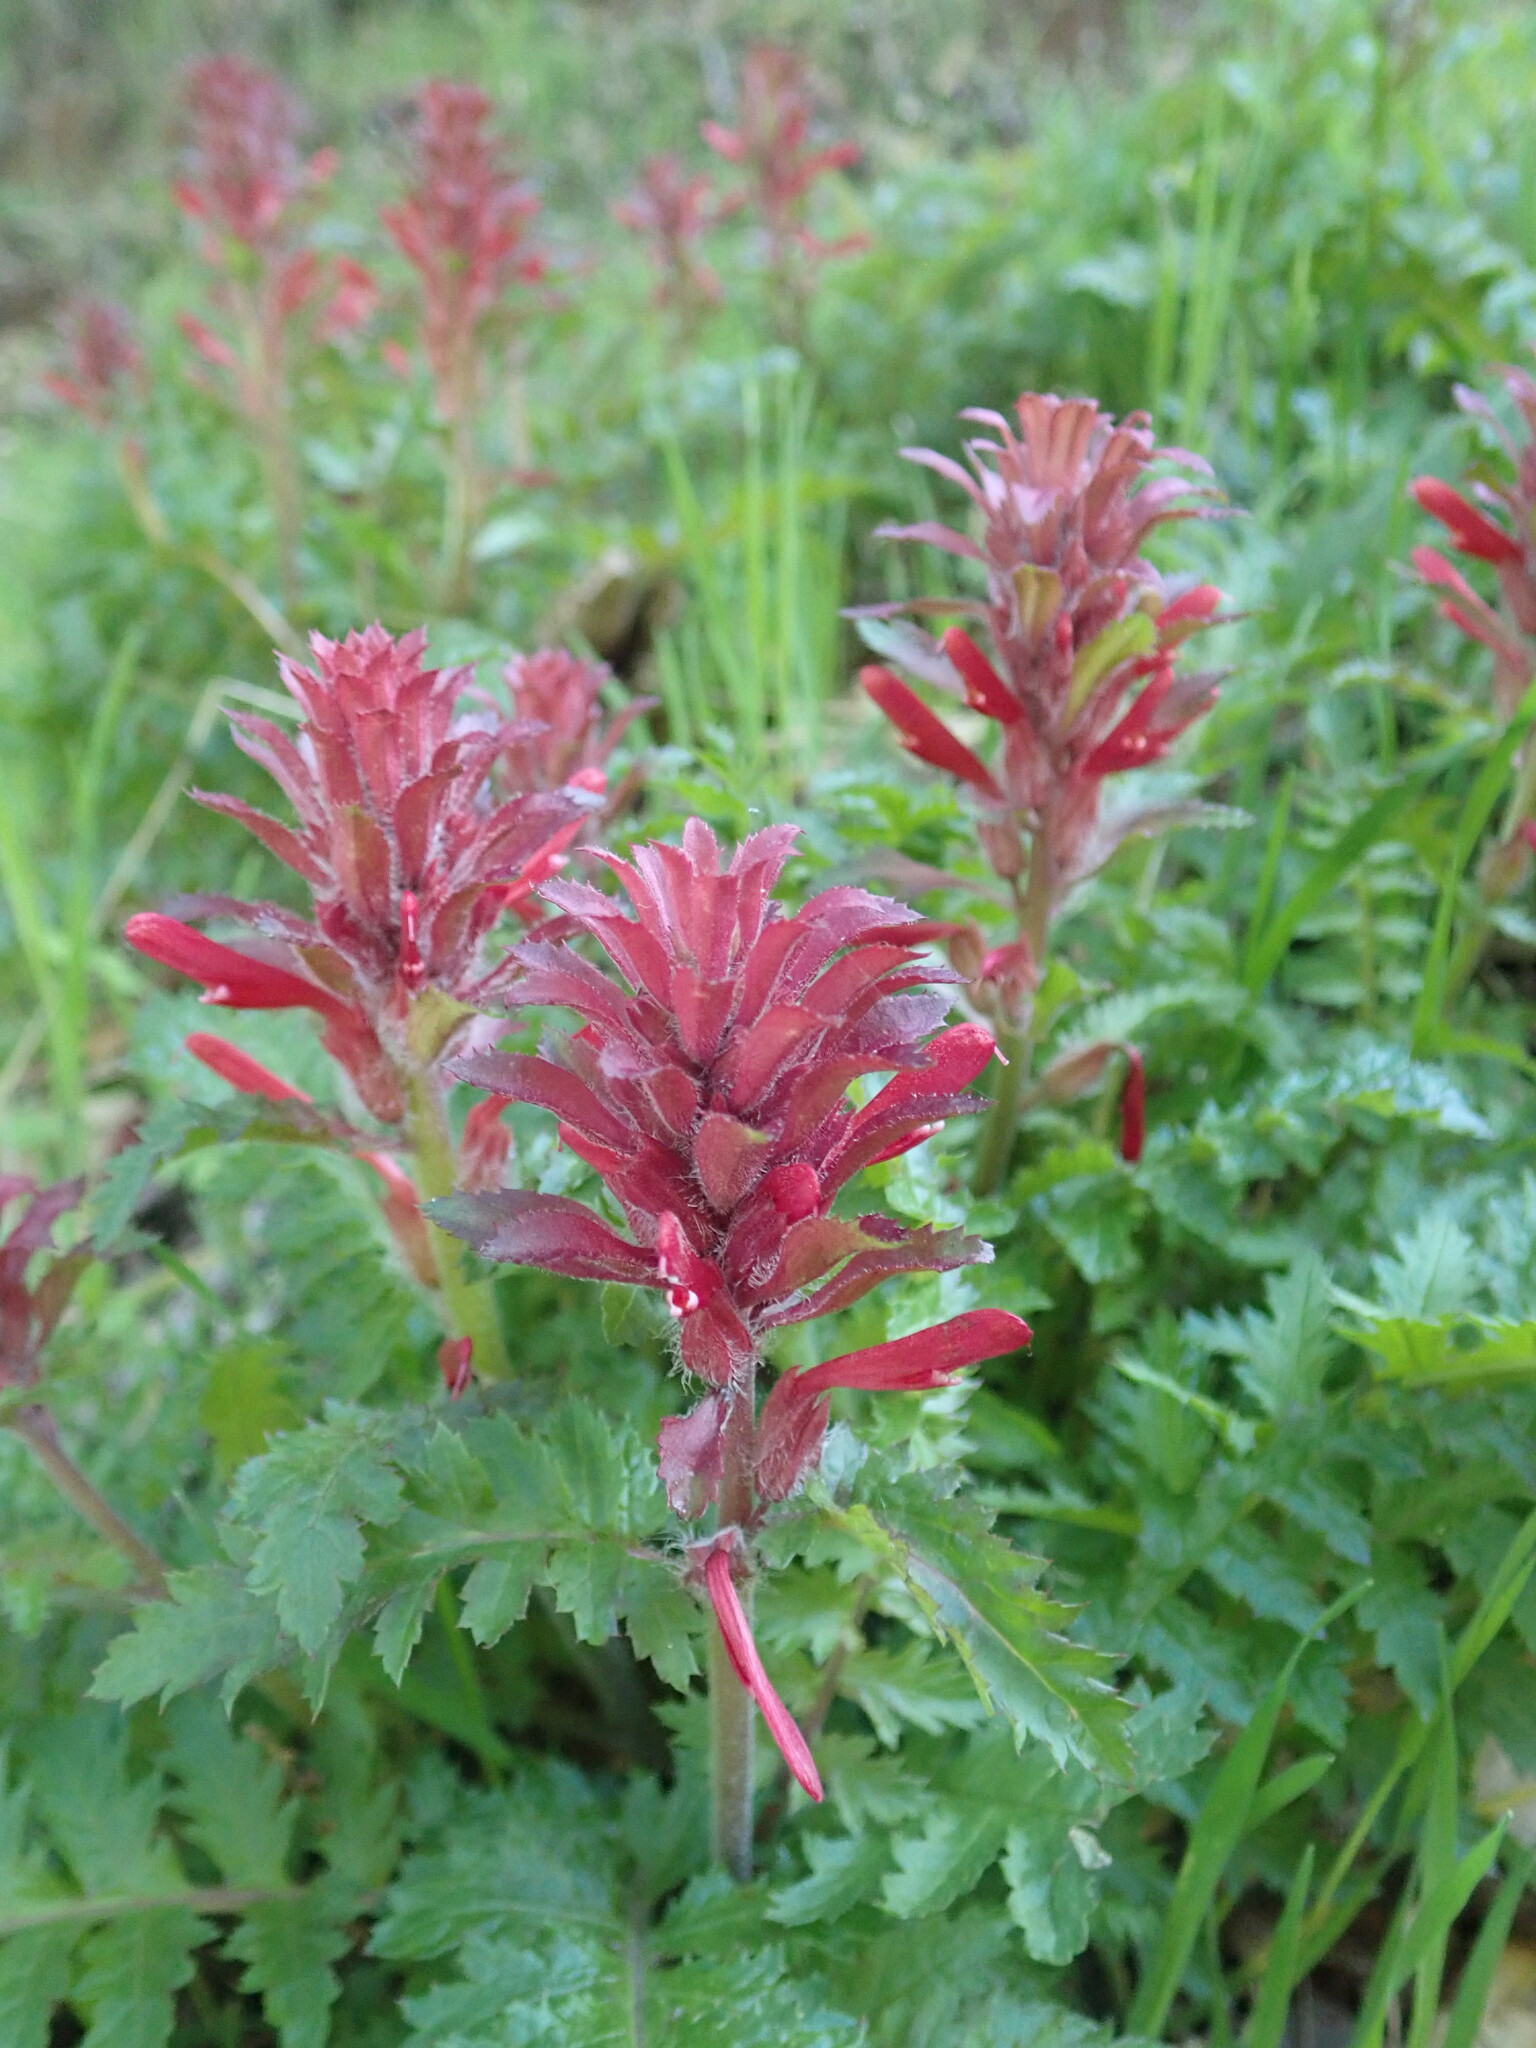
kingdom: Plantae
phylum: Tracheophyta
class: Magnoliopsida
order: Lamiales
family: Orobanchaceae
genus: Pedicularis
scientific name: Pedicularis densiflora
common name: Indian warrior
